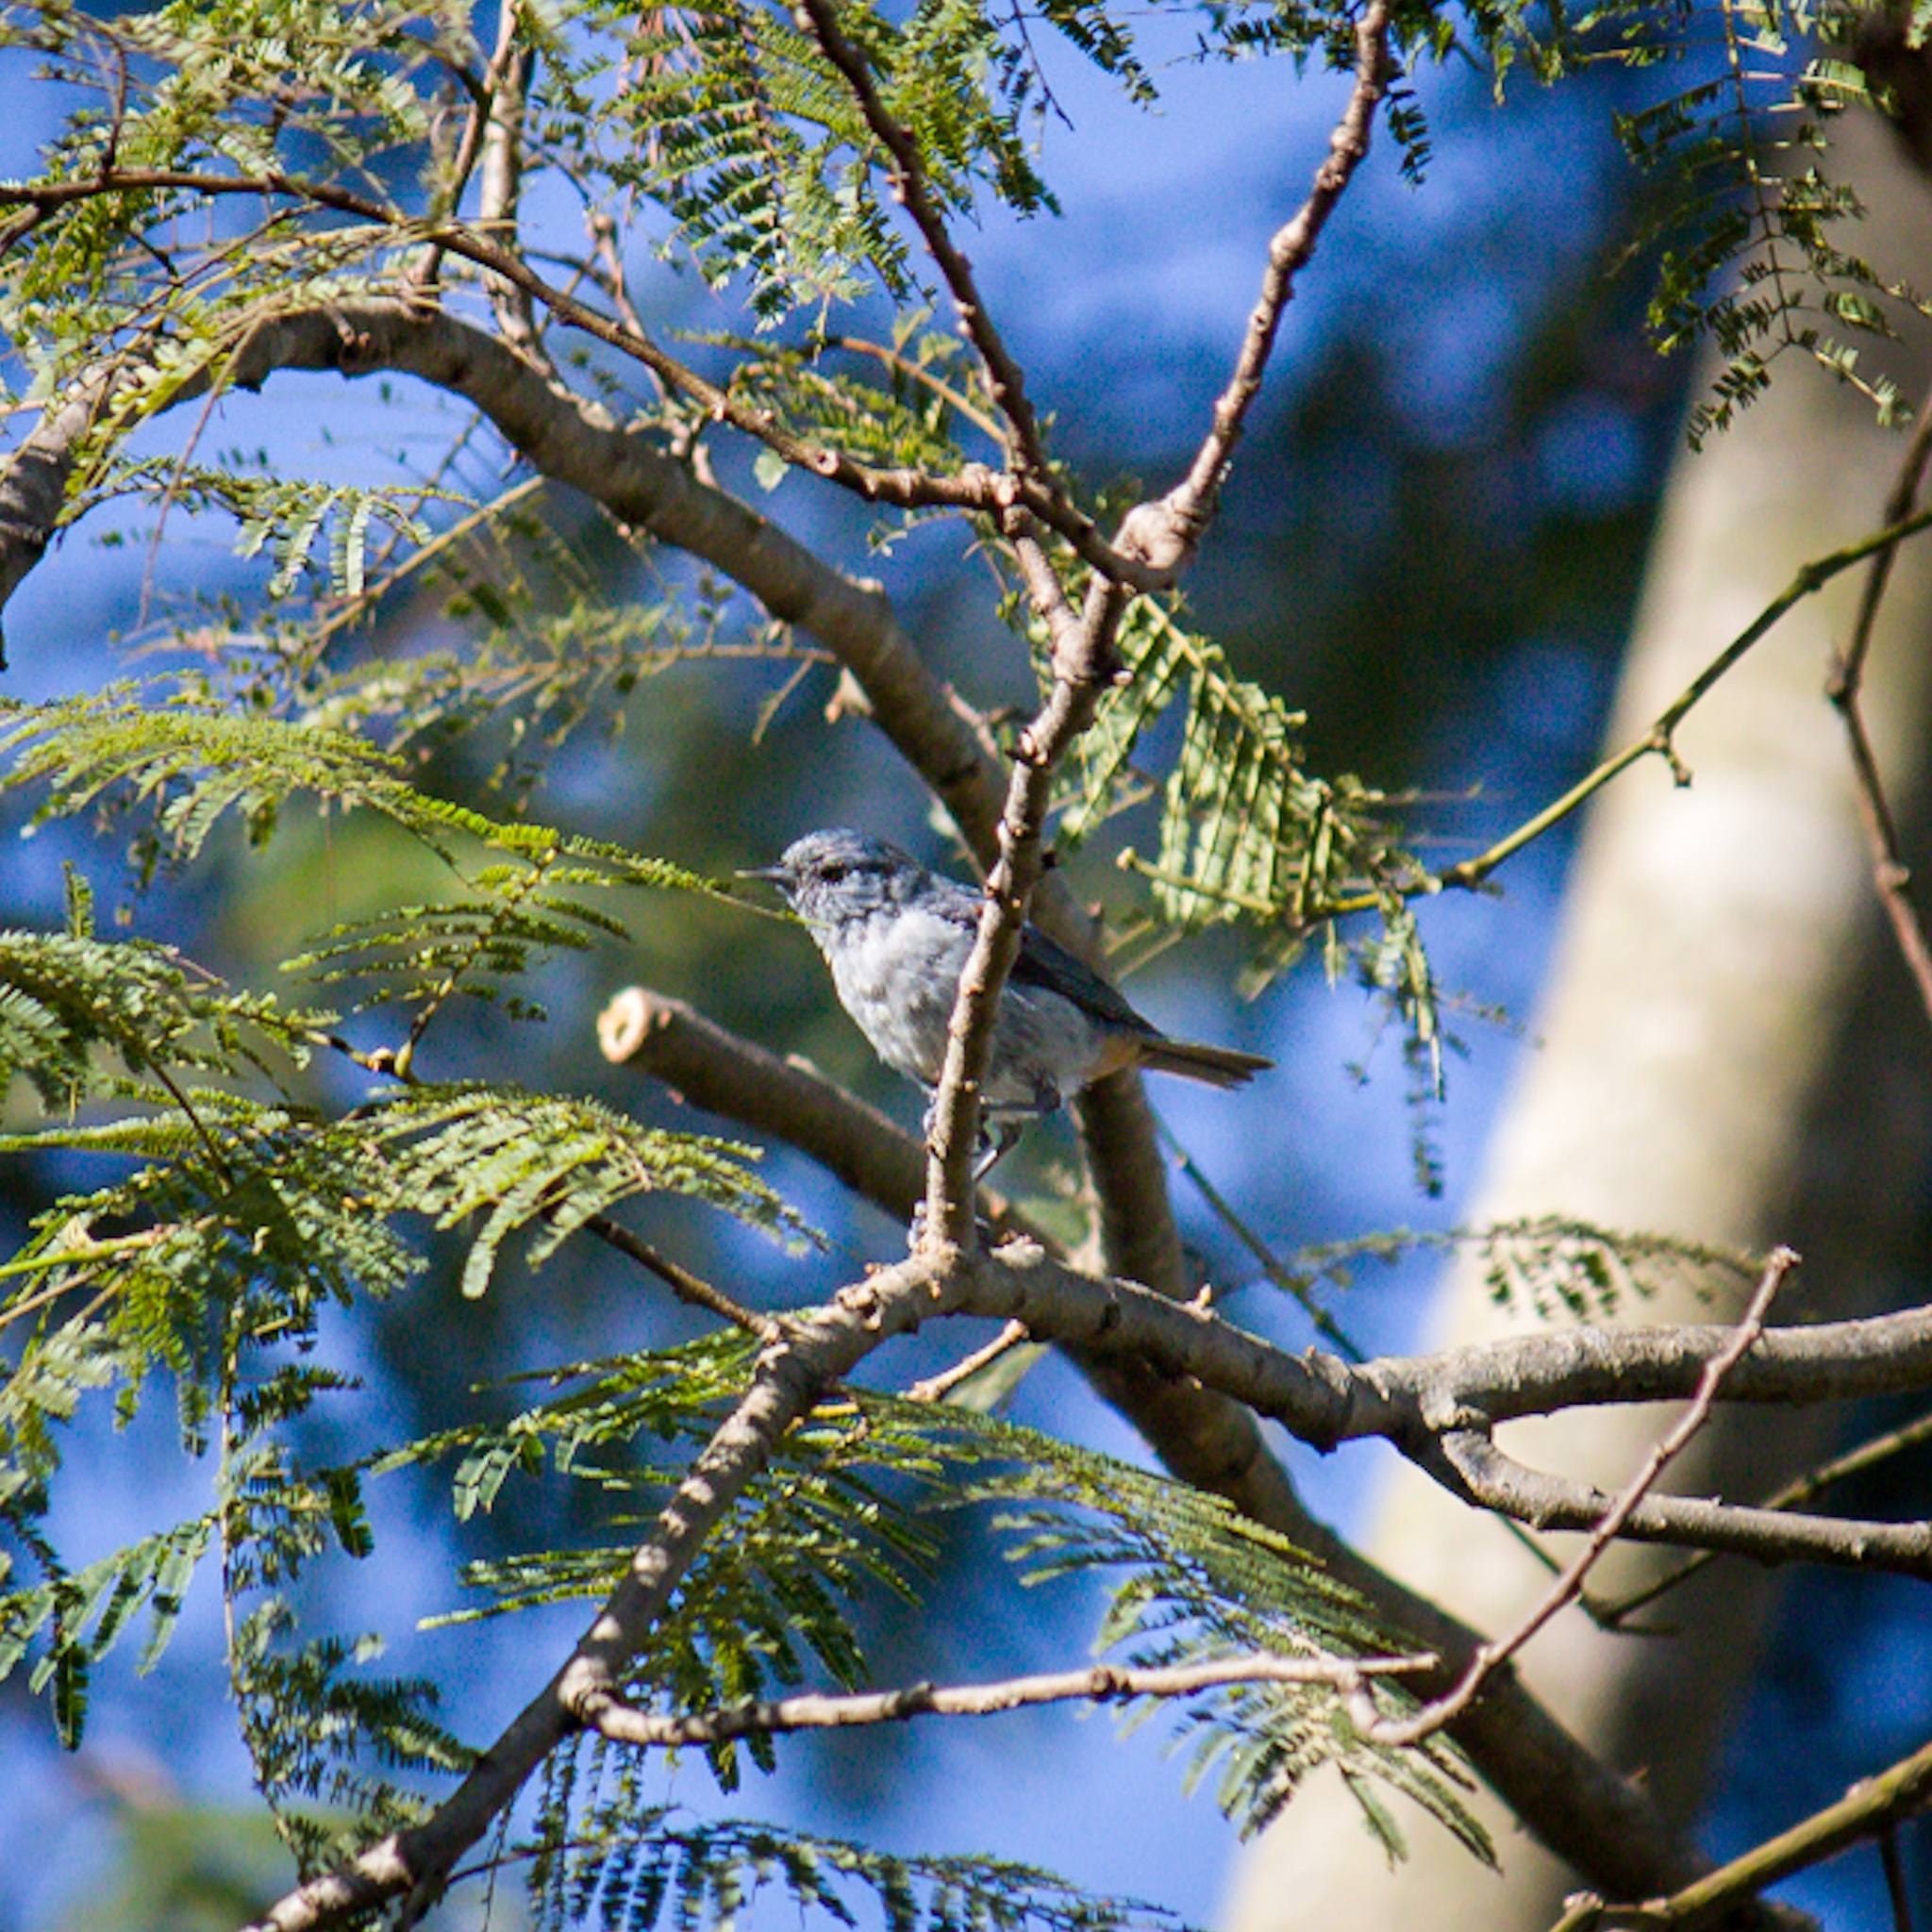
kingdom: Animalia
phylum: Chordata
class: Aves
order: Passeriformes
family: Thraupidae
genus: Conirostrum
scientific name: Conirostrum speciosum
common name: Chestnut-vented conebill
